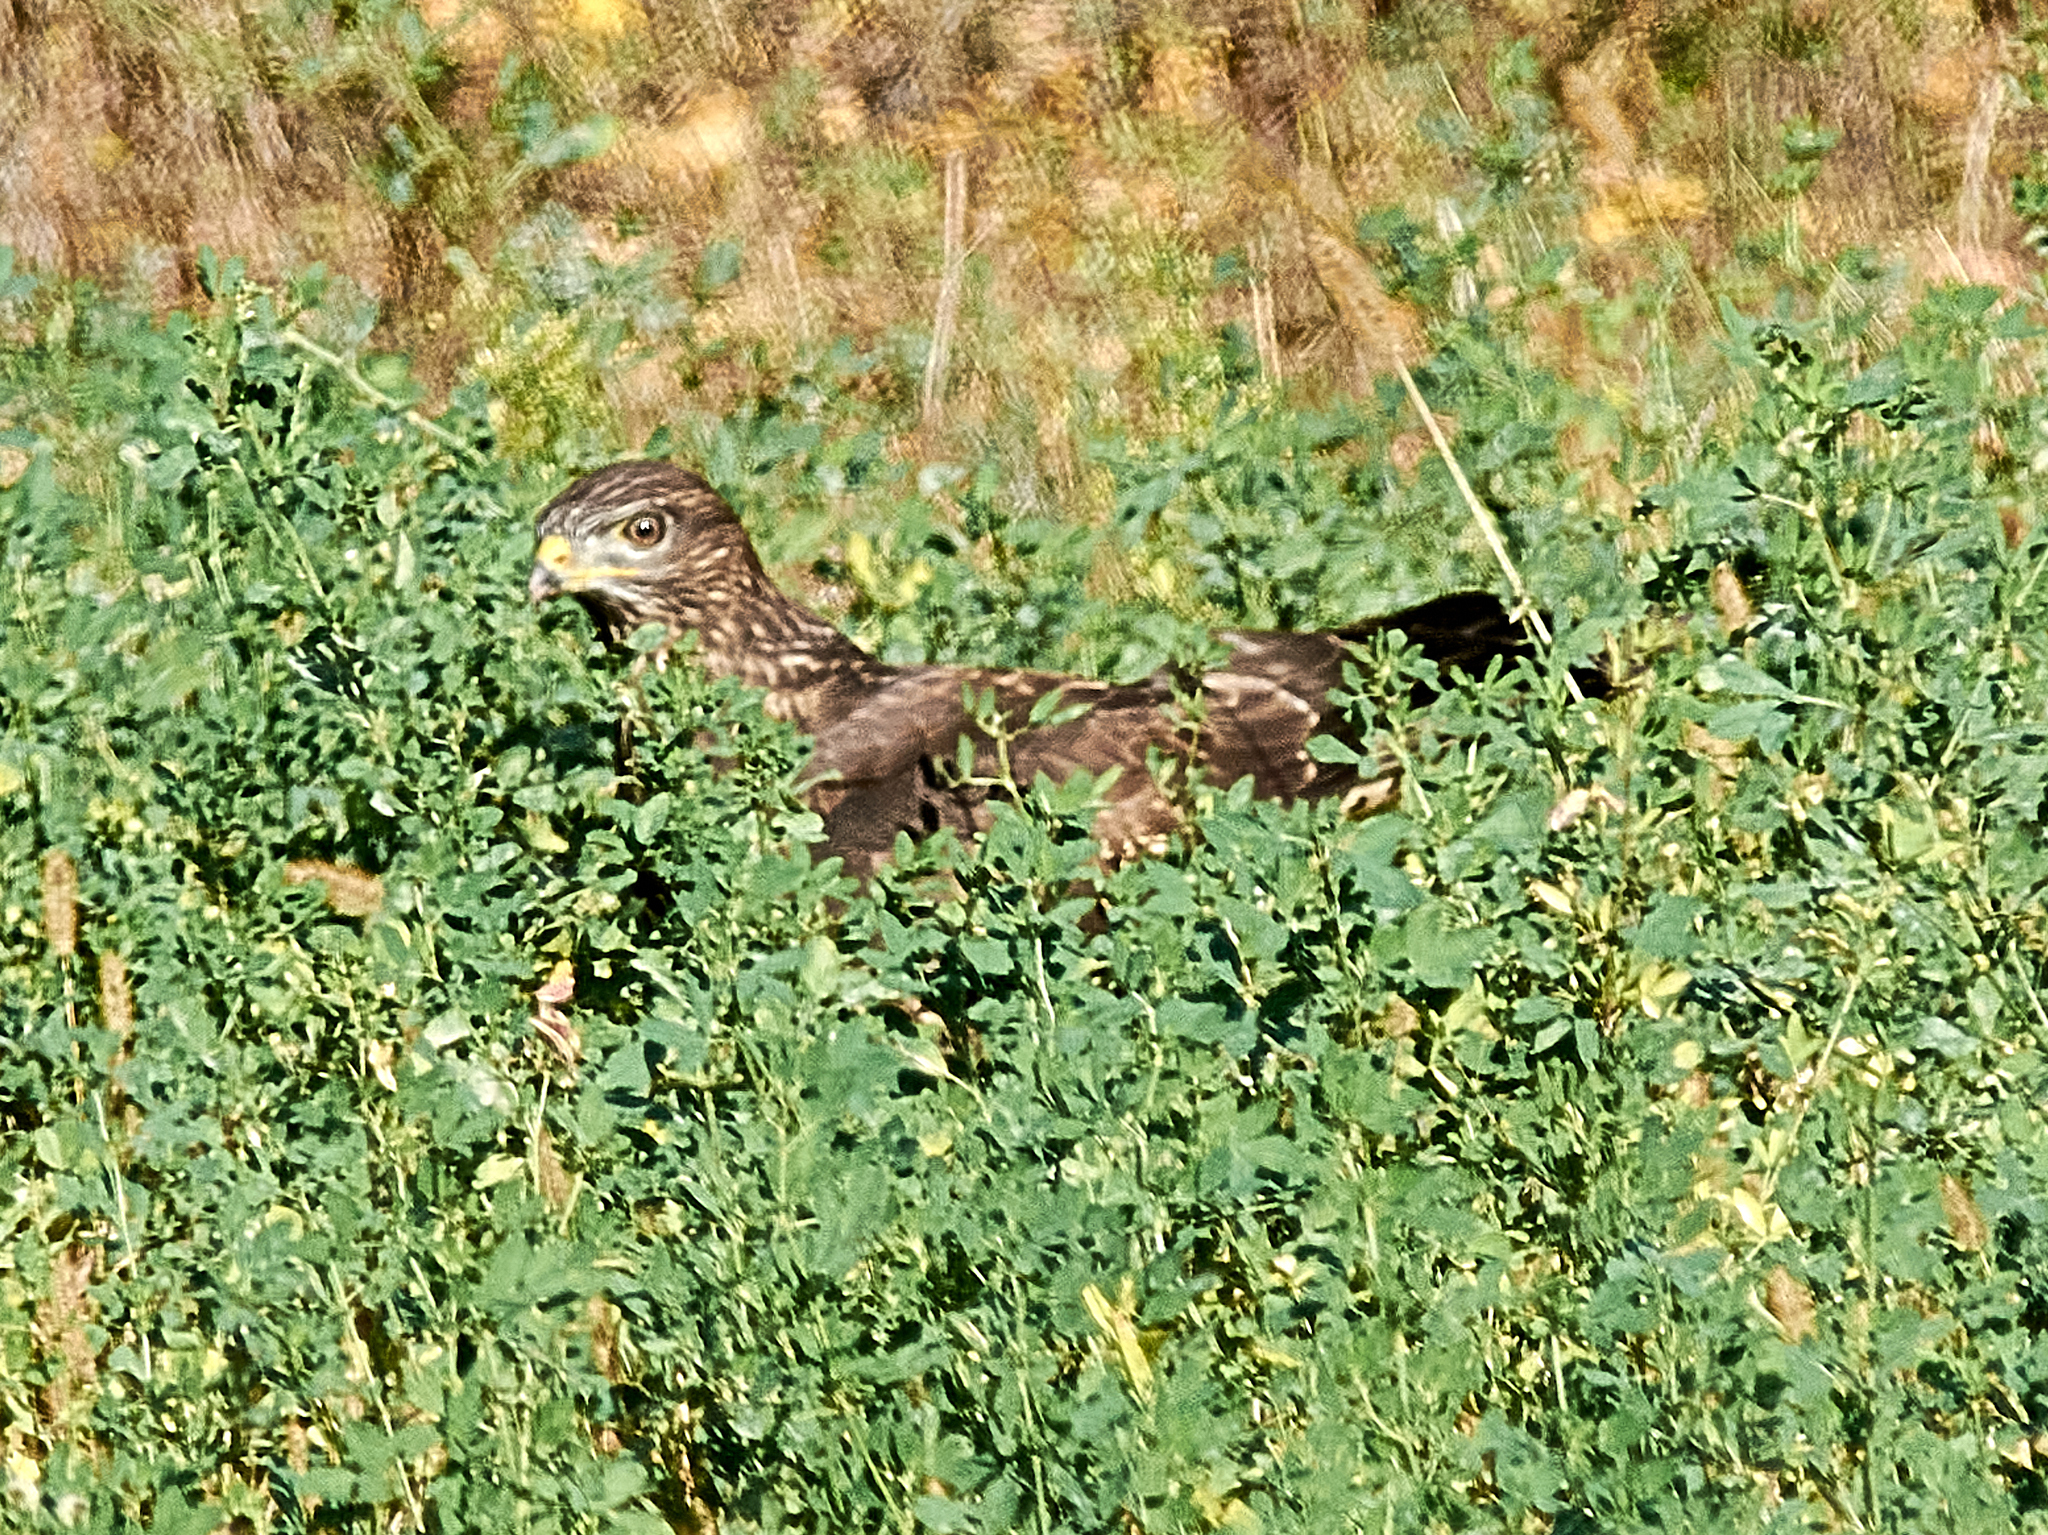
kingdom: Animalia
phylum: Chordata
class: Aves
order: Accipitriformes
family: Accipitridae
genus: Buteo
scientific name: Buteo buteo
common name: Common buzzard
